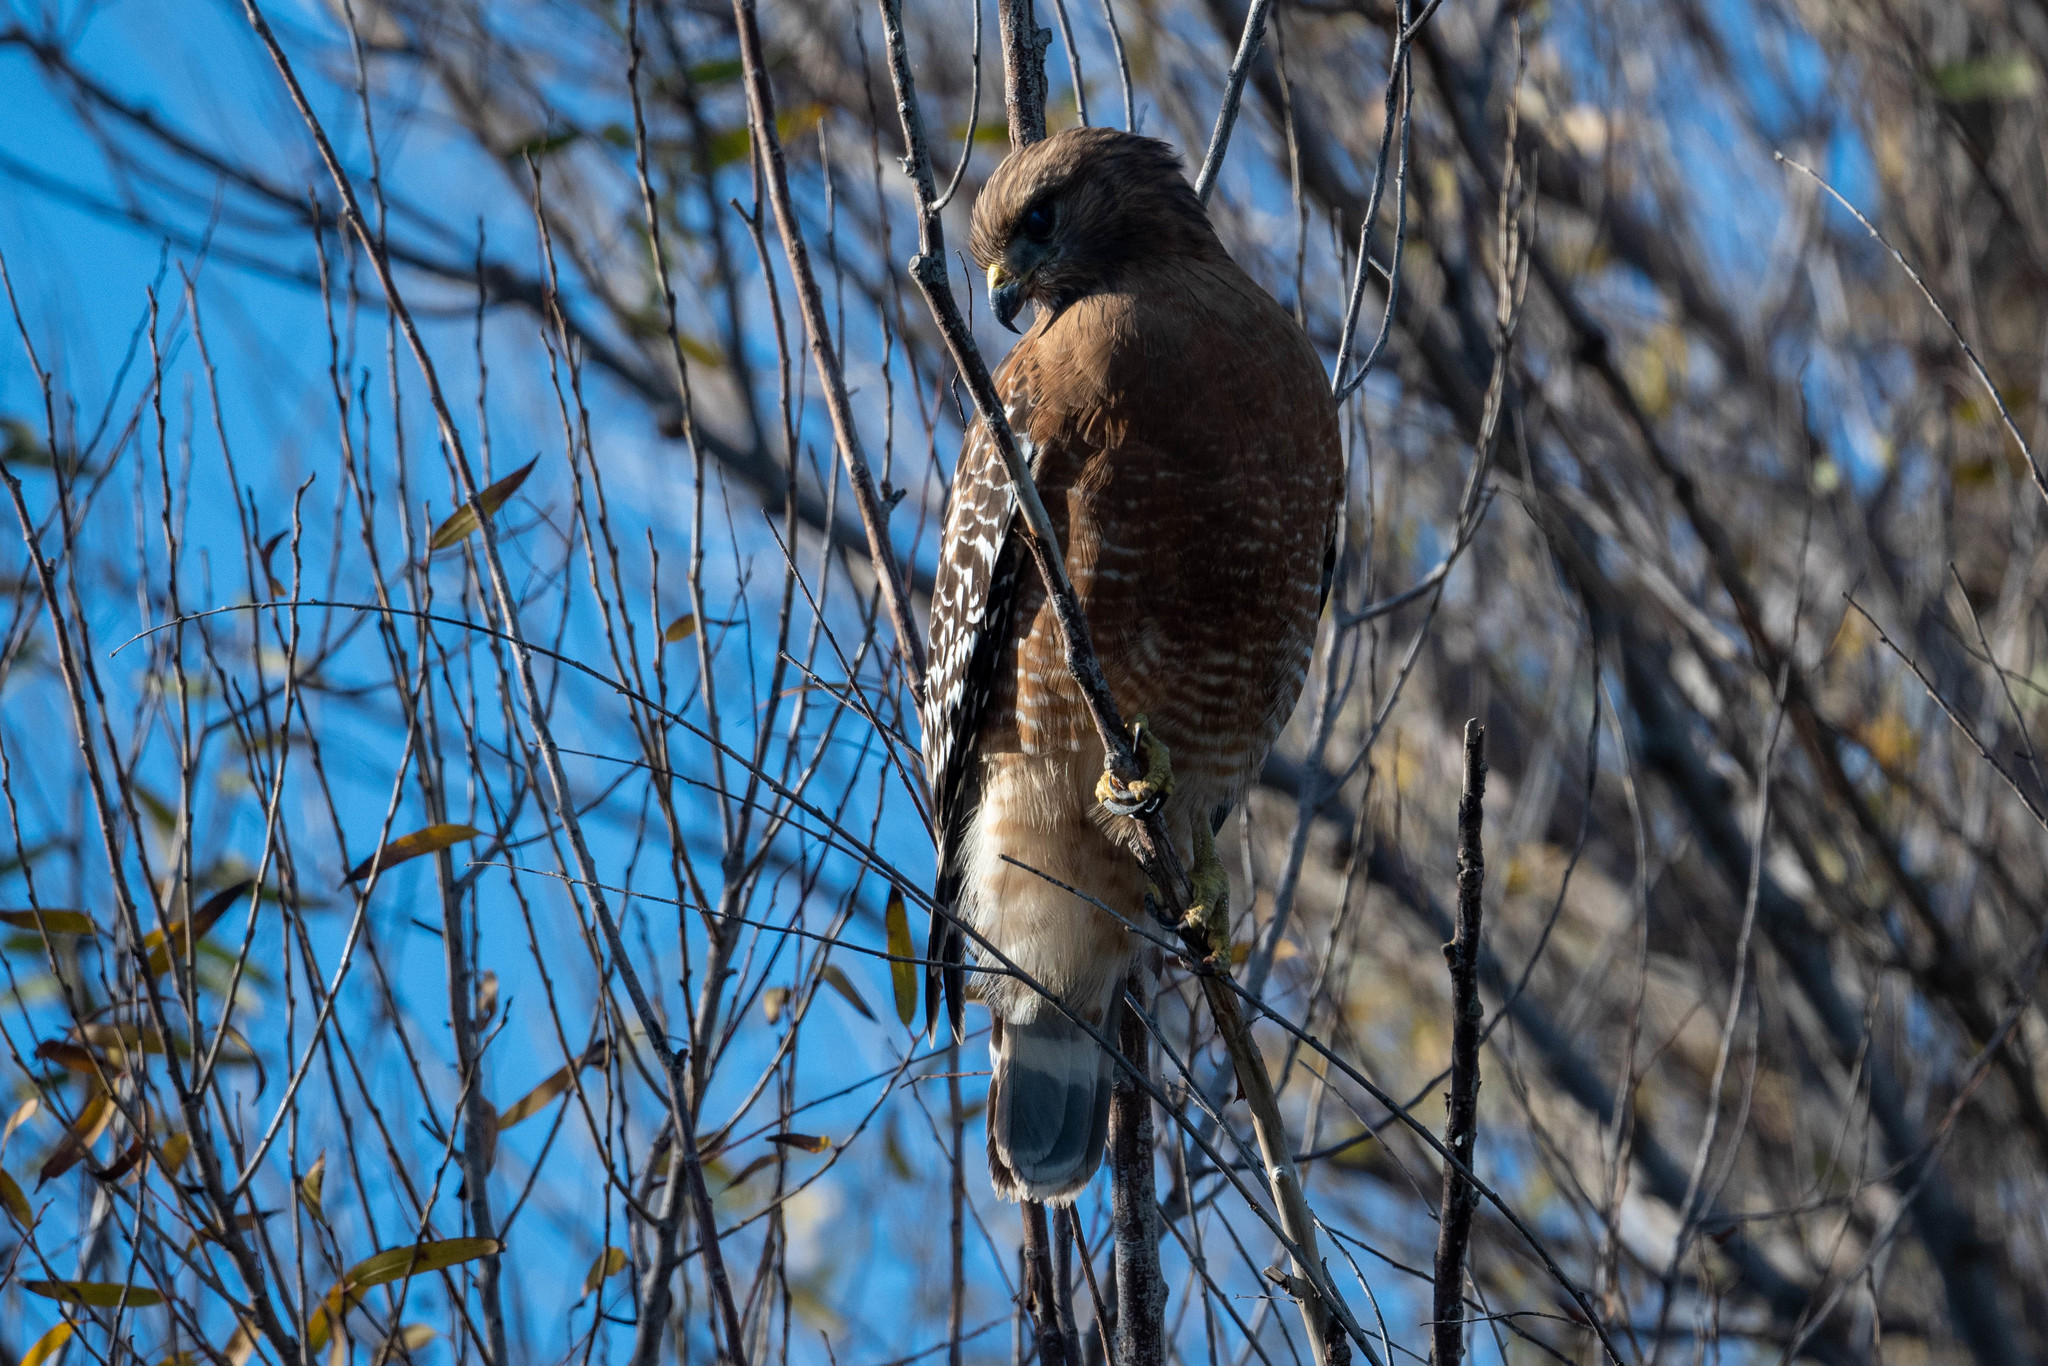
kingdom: Animalia
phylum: Chordata
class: Aves
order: Accipitriformes
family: Accipitridae
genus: Buteo
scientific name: Buteo lineatus
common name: Red-shouldered hawk
